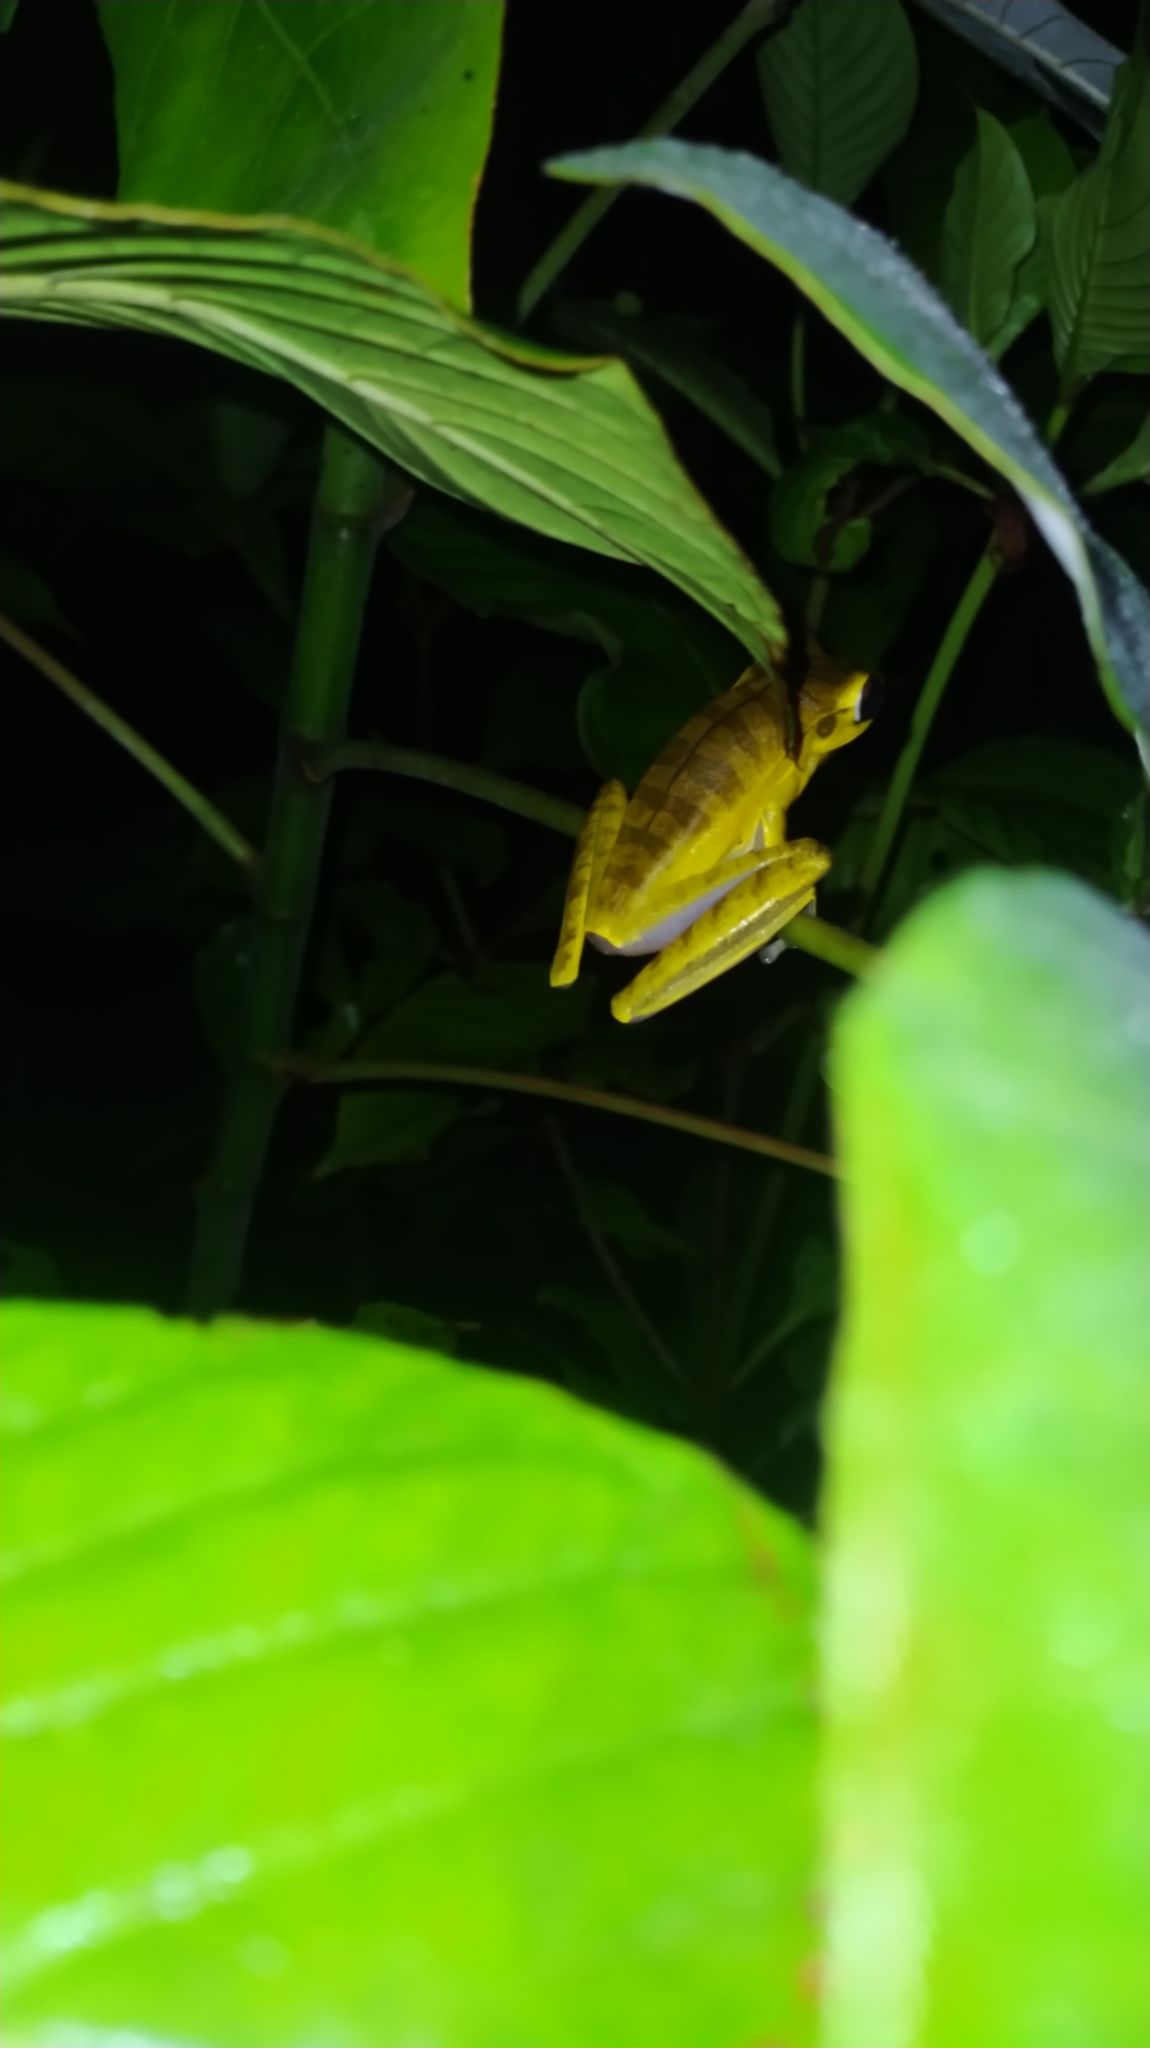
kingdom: Animalia
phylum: Chordata
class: Amphibia
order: Anura
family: Hylidae
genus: Boana
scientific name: Boana multifasciata
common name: Many-banded treefrog
